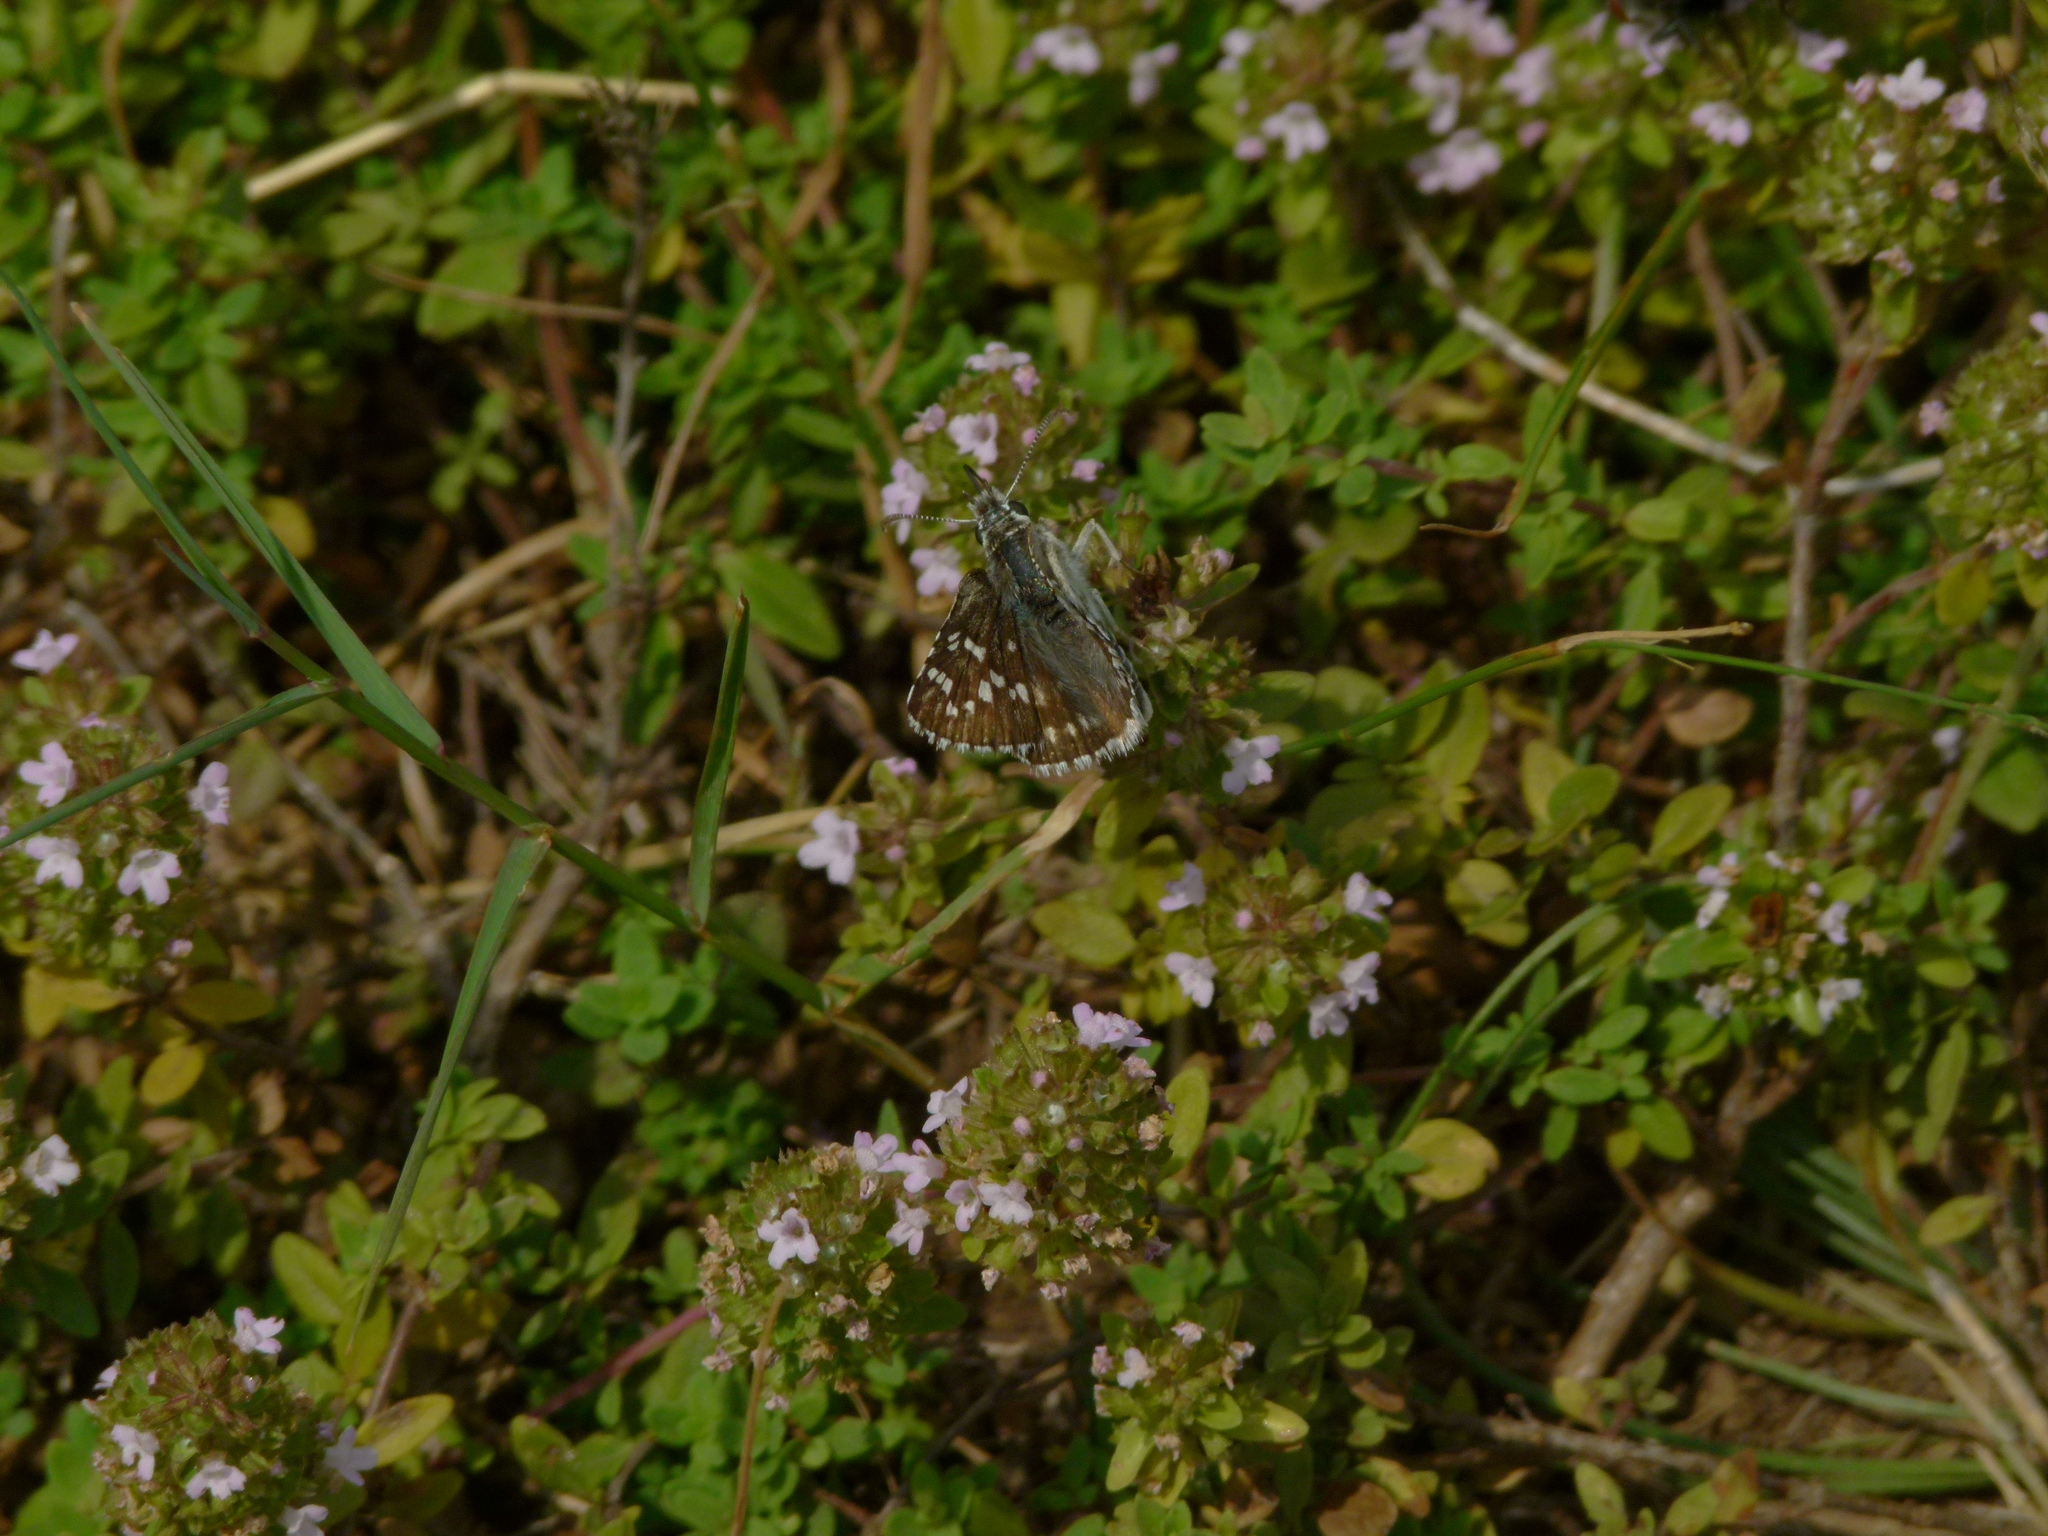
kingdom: Animalia
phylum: Arthropoda
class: Insecta
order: Lepidoptera
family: Hesperiidae
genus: Pyrgus
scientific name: Pyrgus fritillarius
